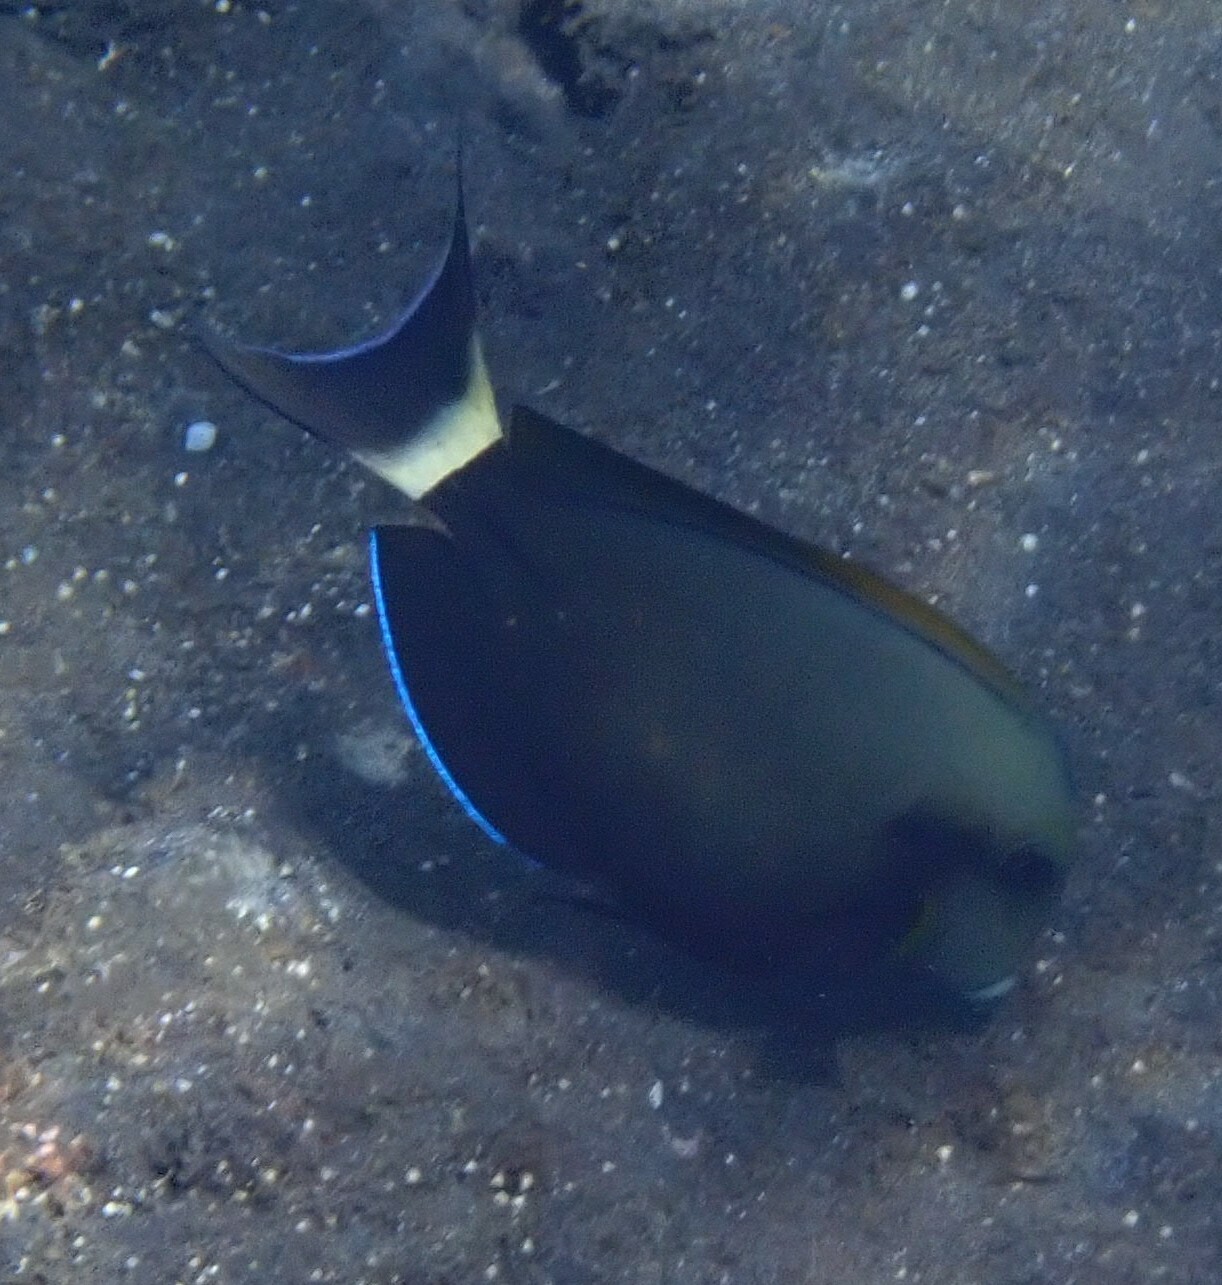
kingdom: Animalia
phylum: Chordata
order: Perciformes
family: Acanthuridae
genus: Acanthurus
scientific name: Acanthurus nigricauda
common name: Black-barred surgeonfish
